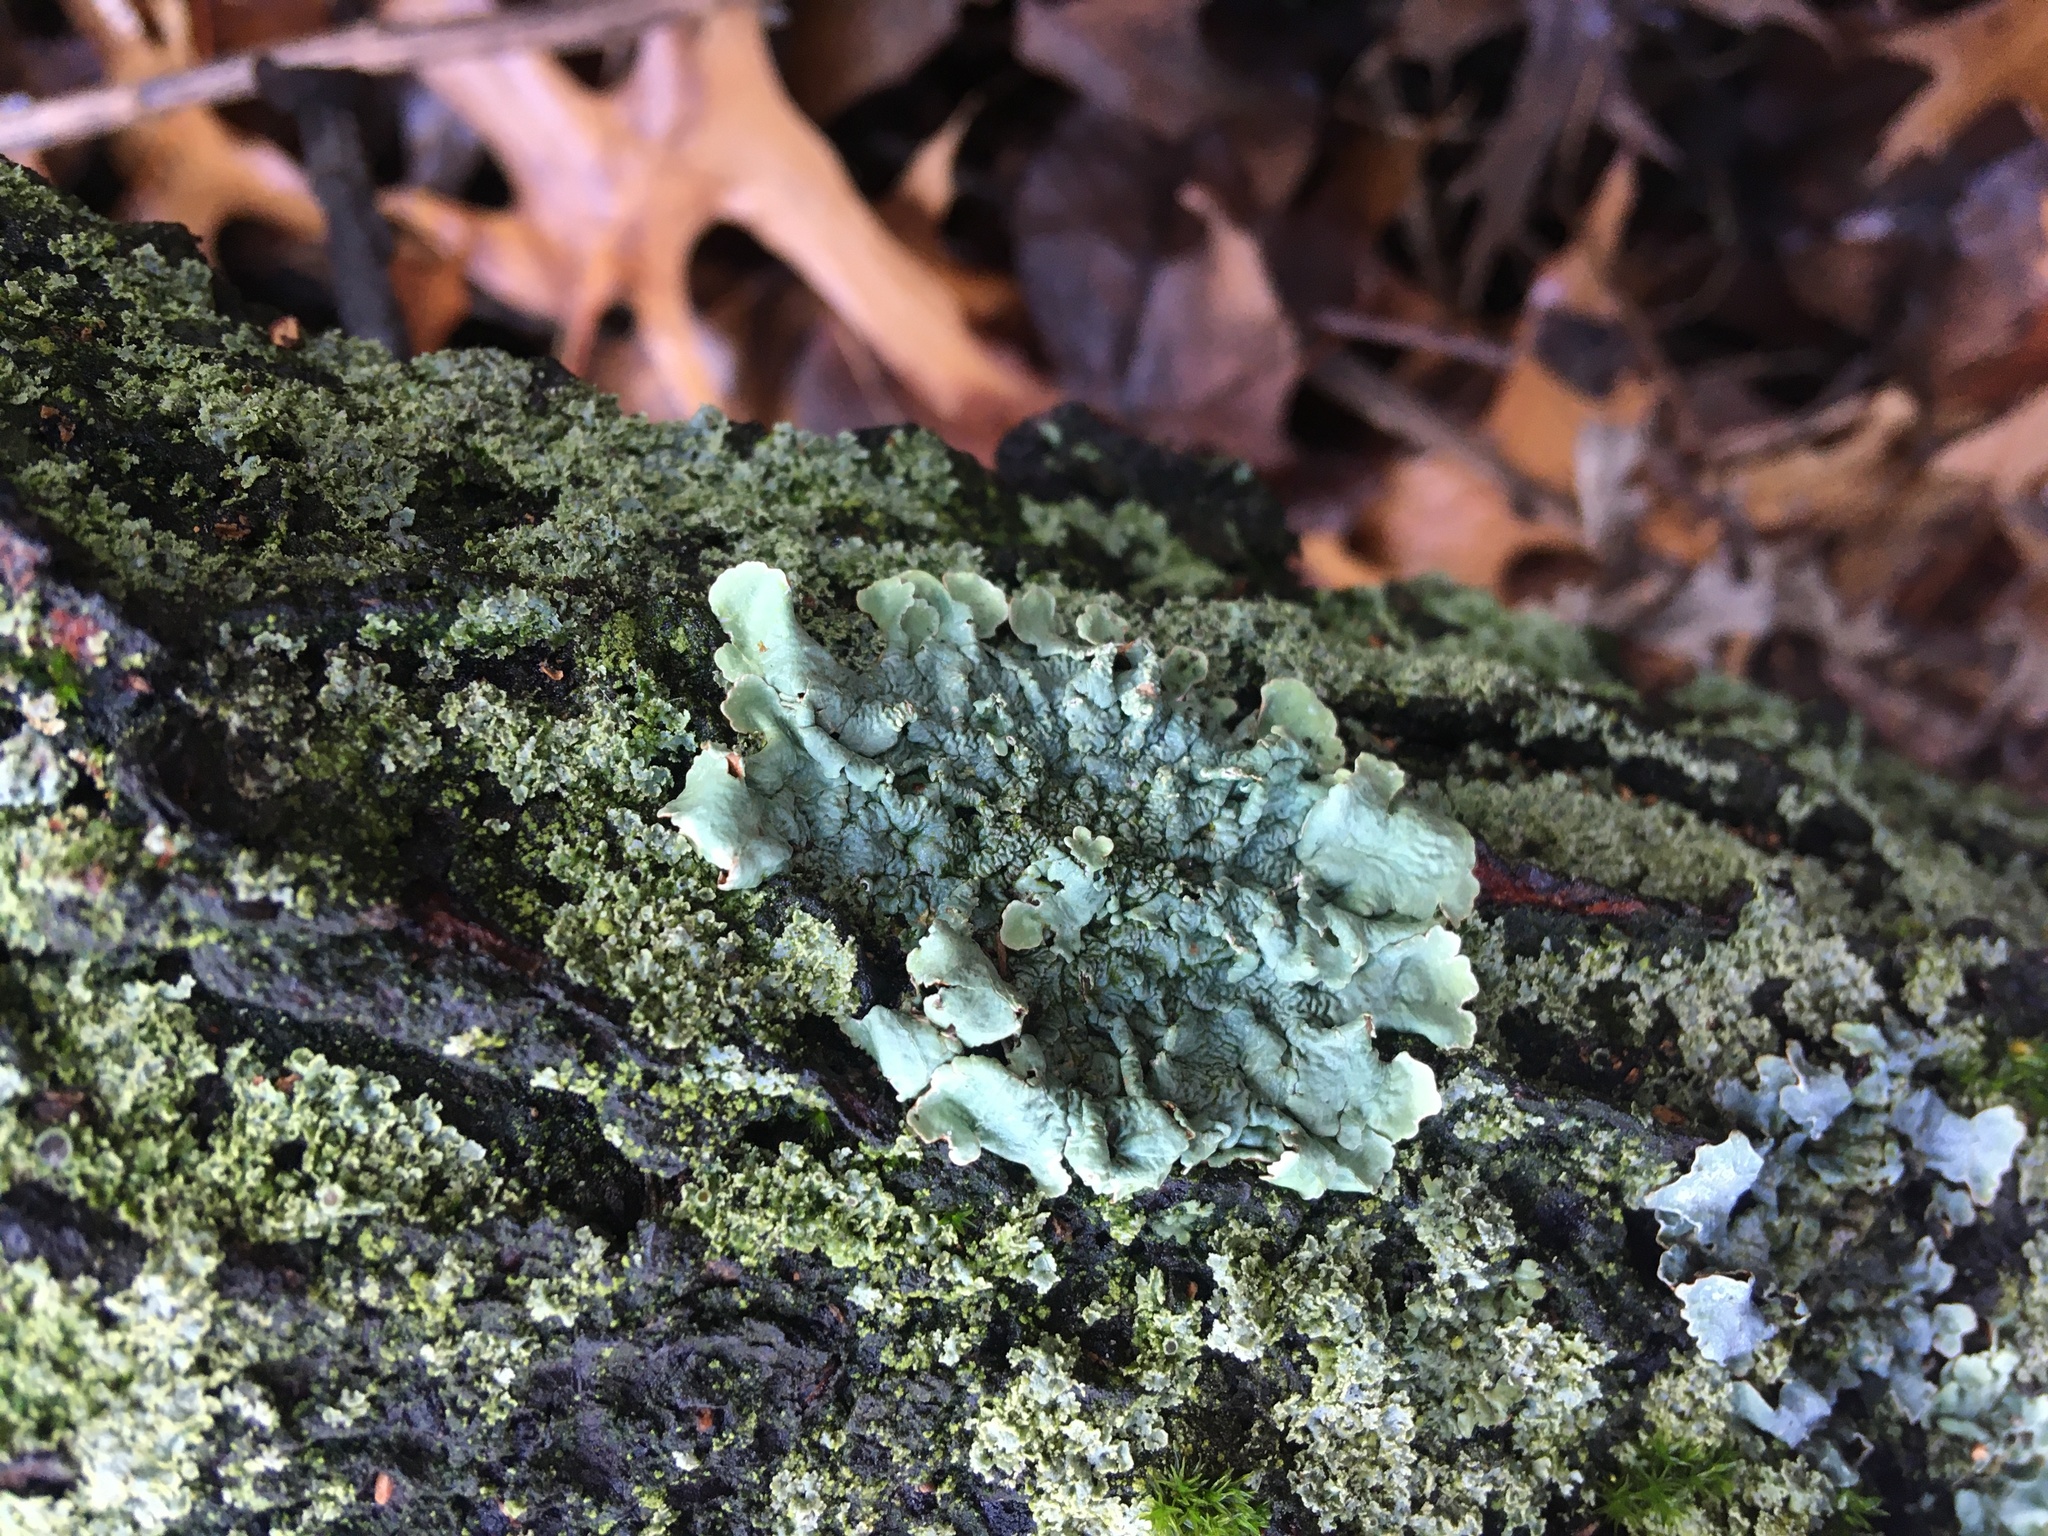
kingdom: Fungi
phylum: Ascomycota
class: Lecanoromycetes
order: Lecanorales
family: Parmeliaceae
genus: Flavoparmelia
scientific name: Flavoparmelia caperata
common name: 40-mile per hour lichen
